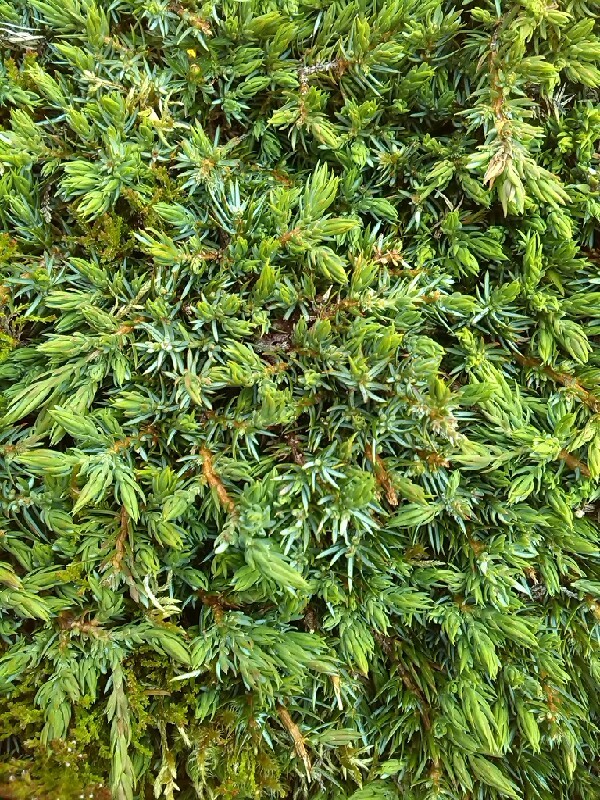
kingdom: Plantae
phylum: Tracheophyta
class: Pinopsida
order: Pinales
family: Cupressaceae
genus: Juniperus
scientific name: Juniperus communis
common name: Common juniper
